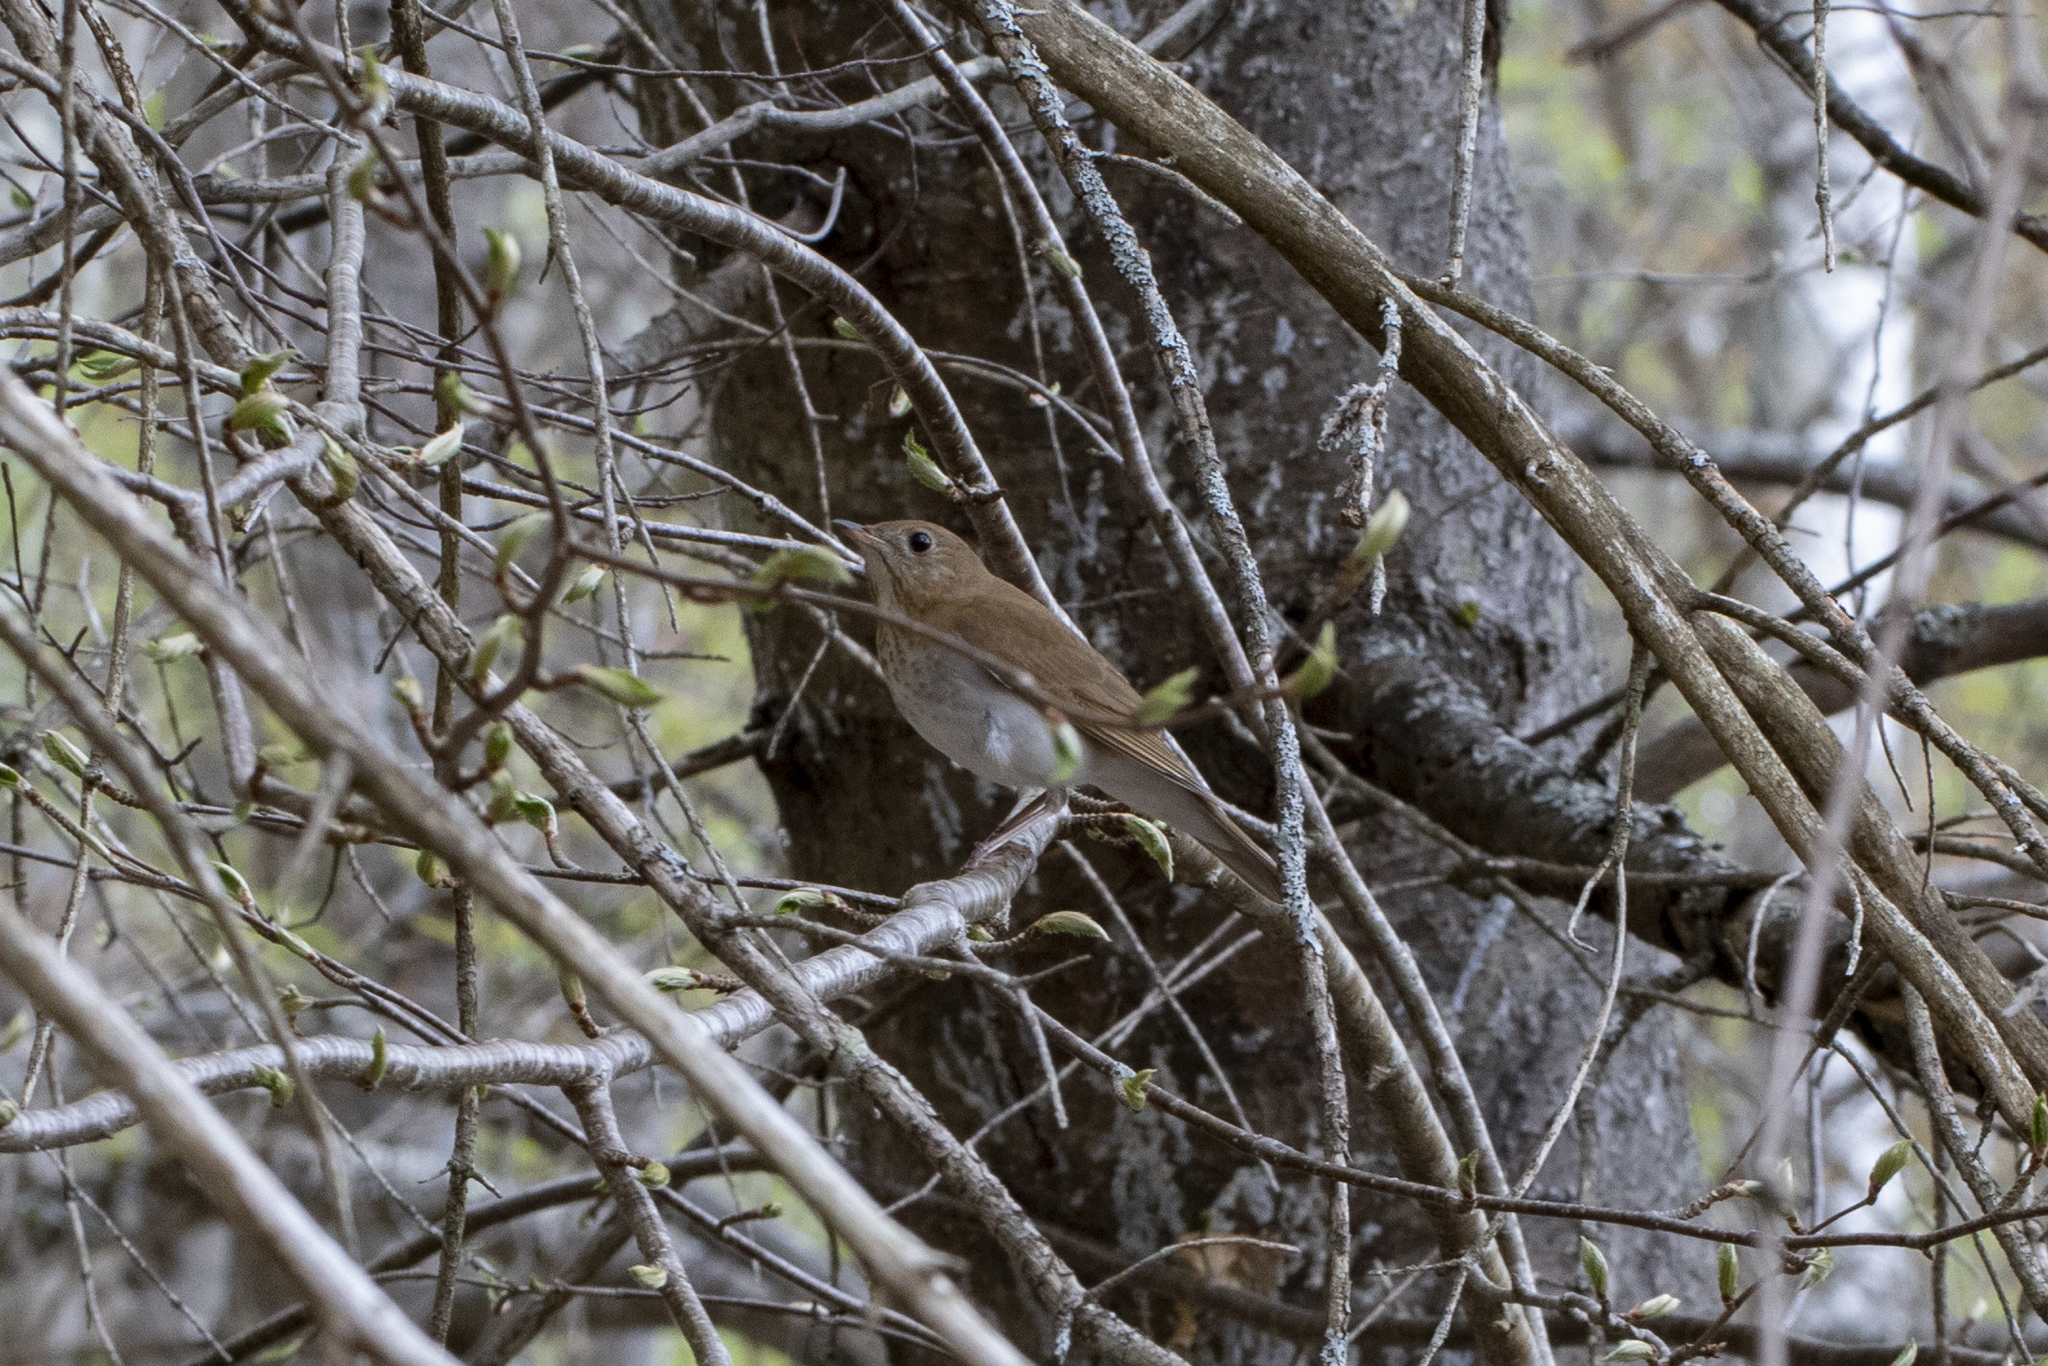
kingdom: Animalia
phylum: Chordata
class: Aves
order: Passeriformes
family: Turdidae
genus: Catharus
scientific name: Catharus fuscescens
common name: Veery
